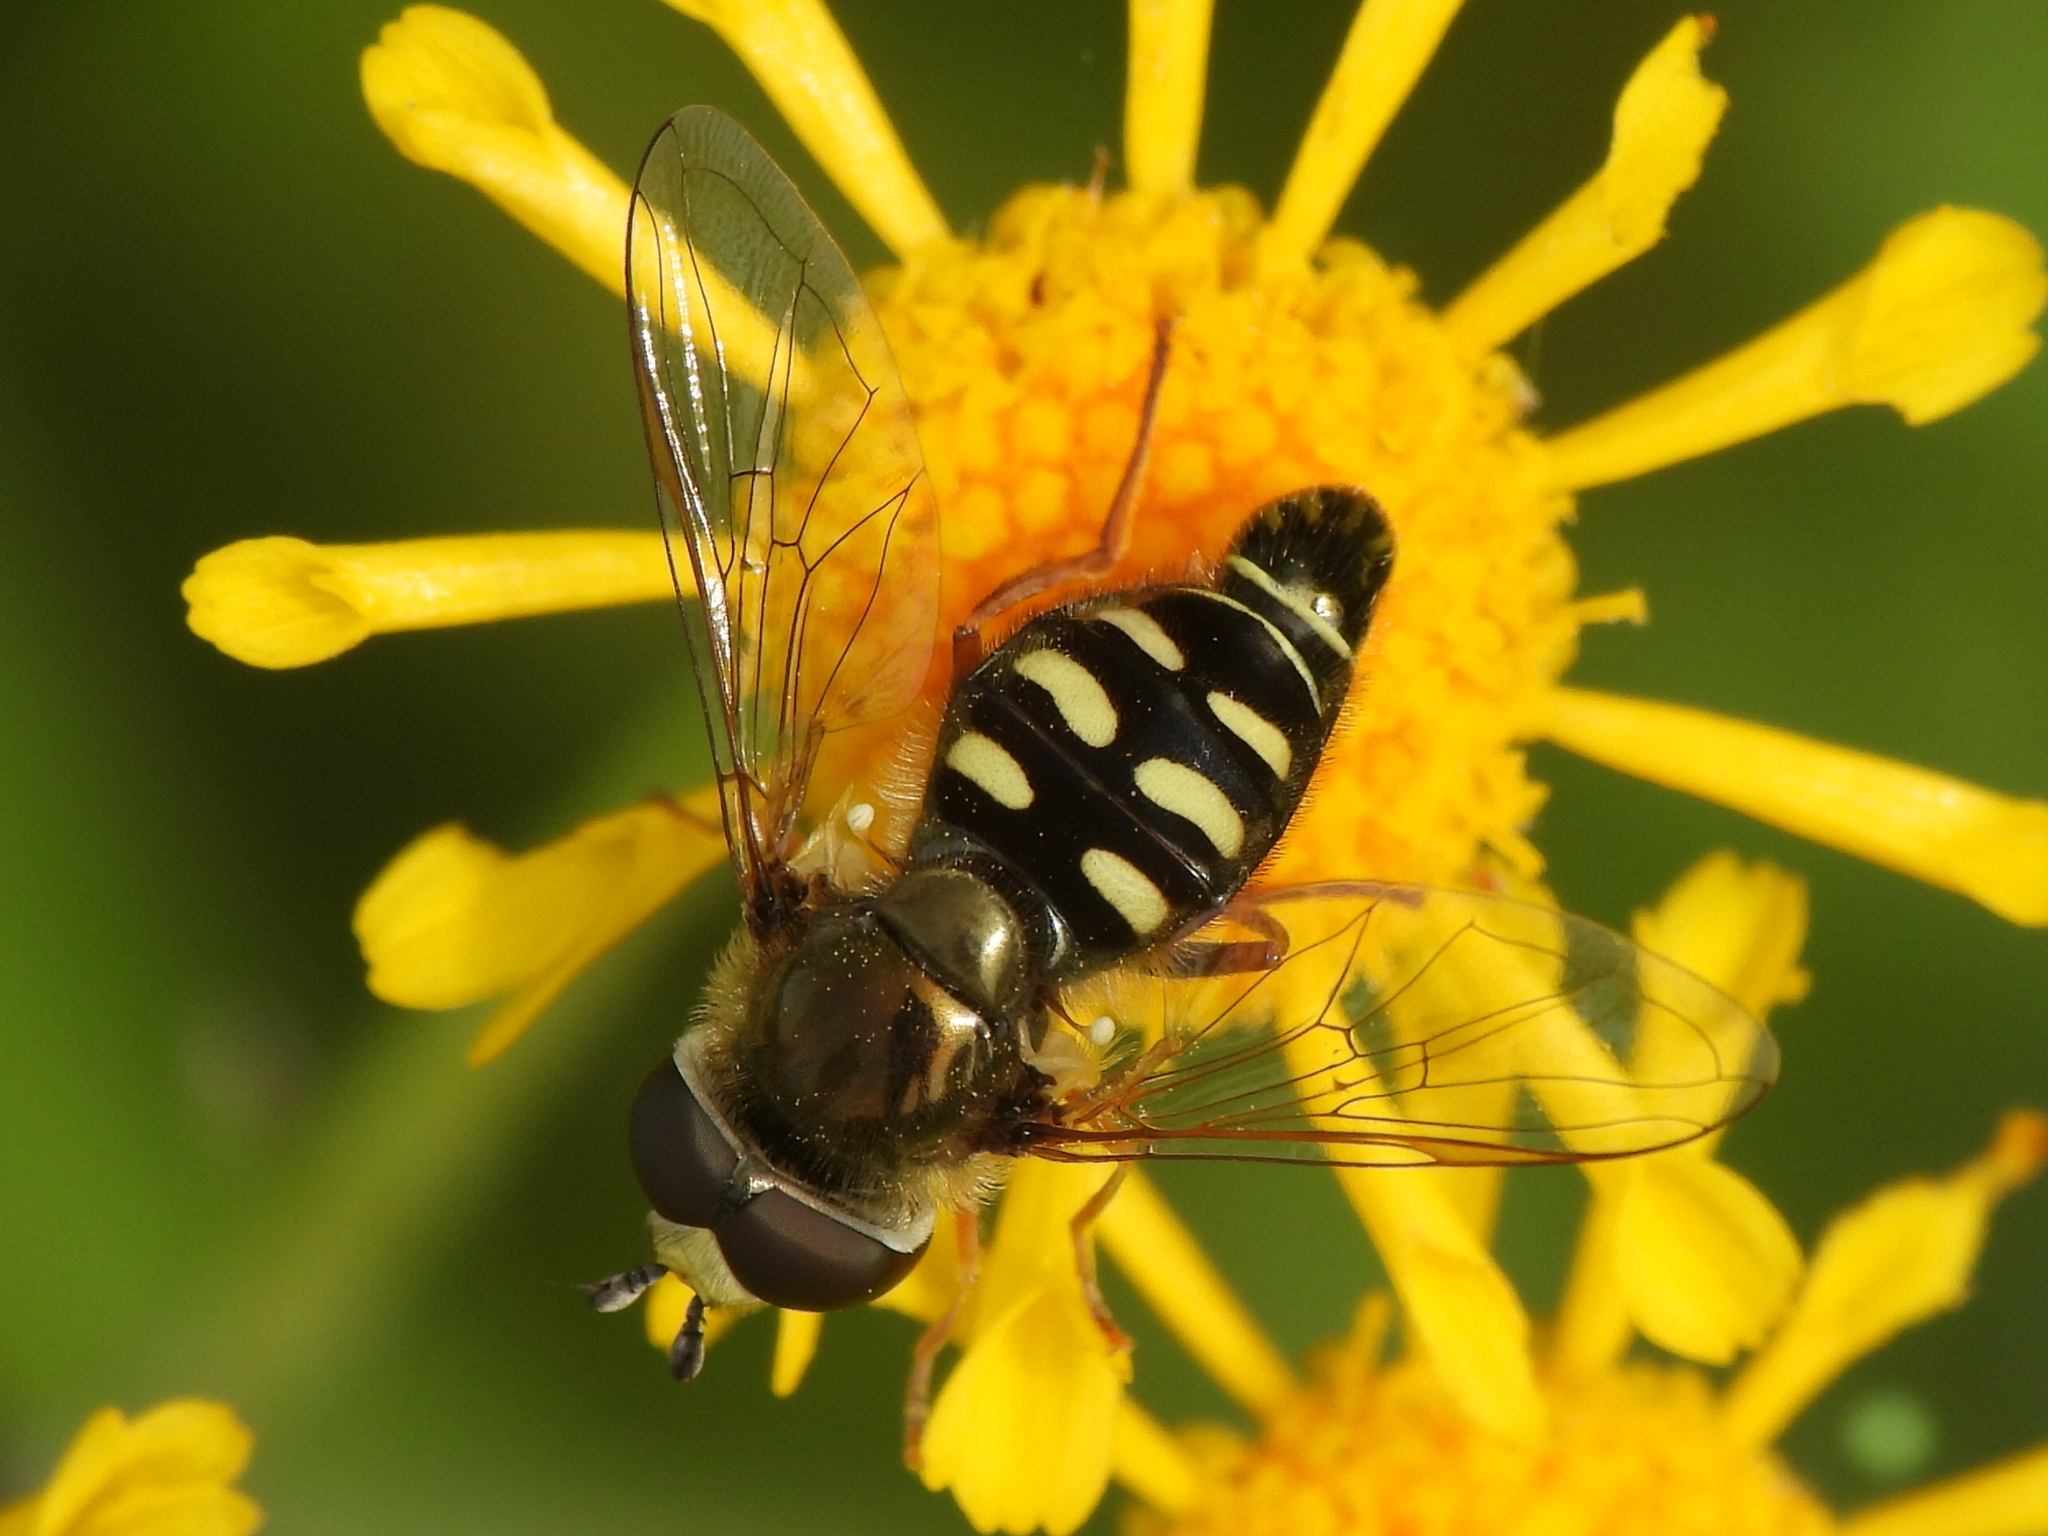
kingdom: Animalia
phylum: Arthropoda
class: Insecta
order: Diptera
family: Syrphidae
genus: Eupeodes
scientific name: Eupeodes volucris
